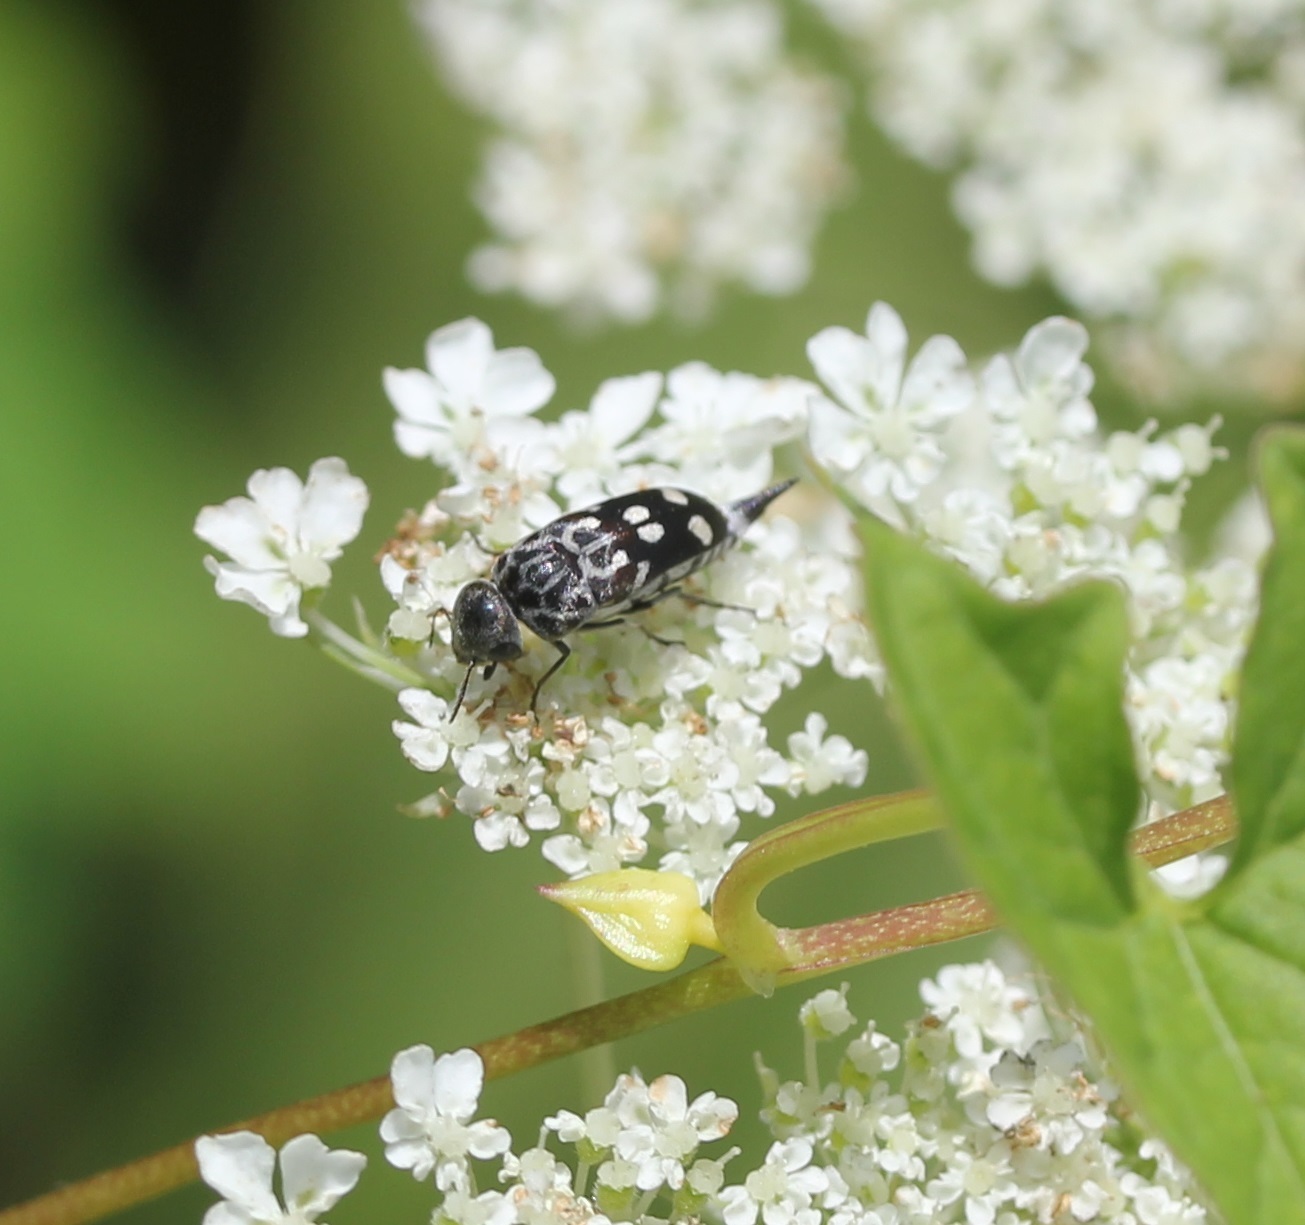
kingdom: Animalia
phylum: Arthropoda
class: Insecta
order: Coleoptera
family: Mordellidae
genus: Hoshihananomia
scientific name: Hoshihananomia octopunctata
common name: Eight-spotted tumbling flower beetle
